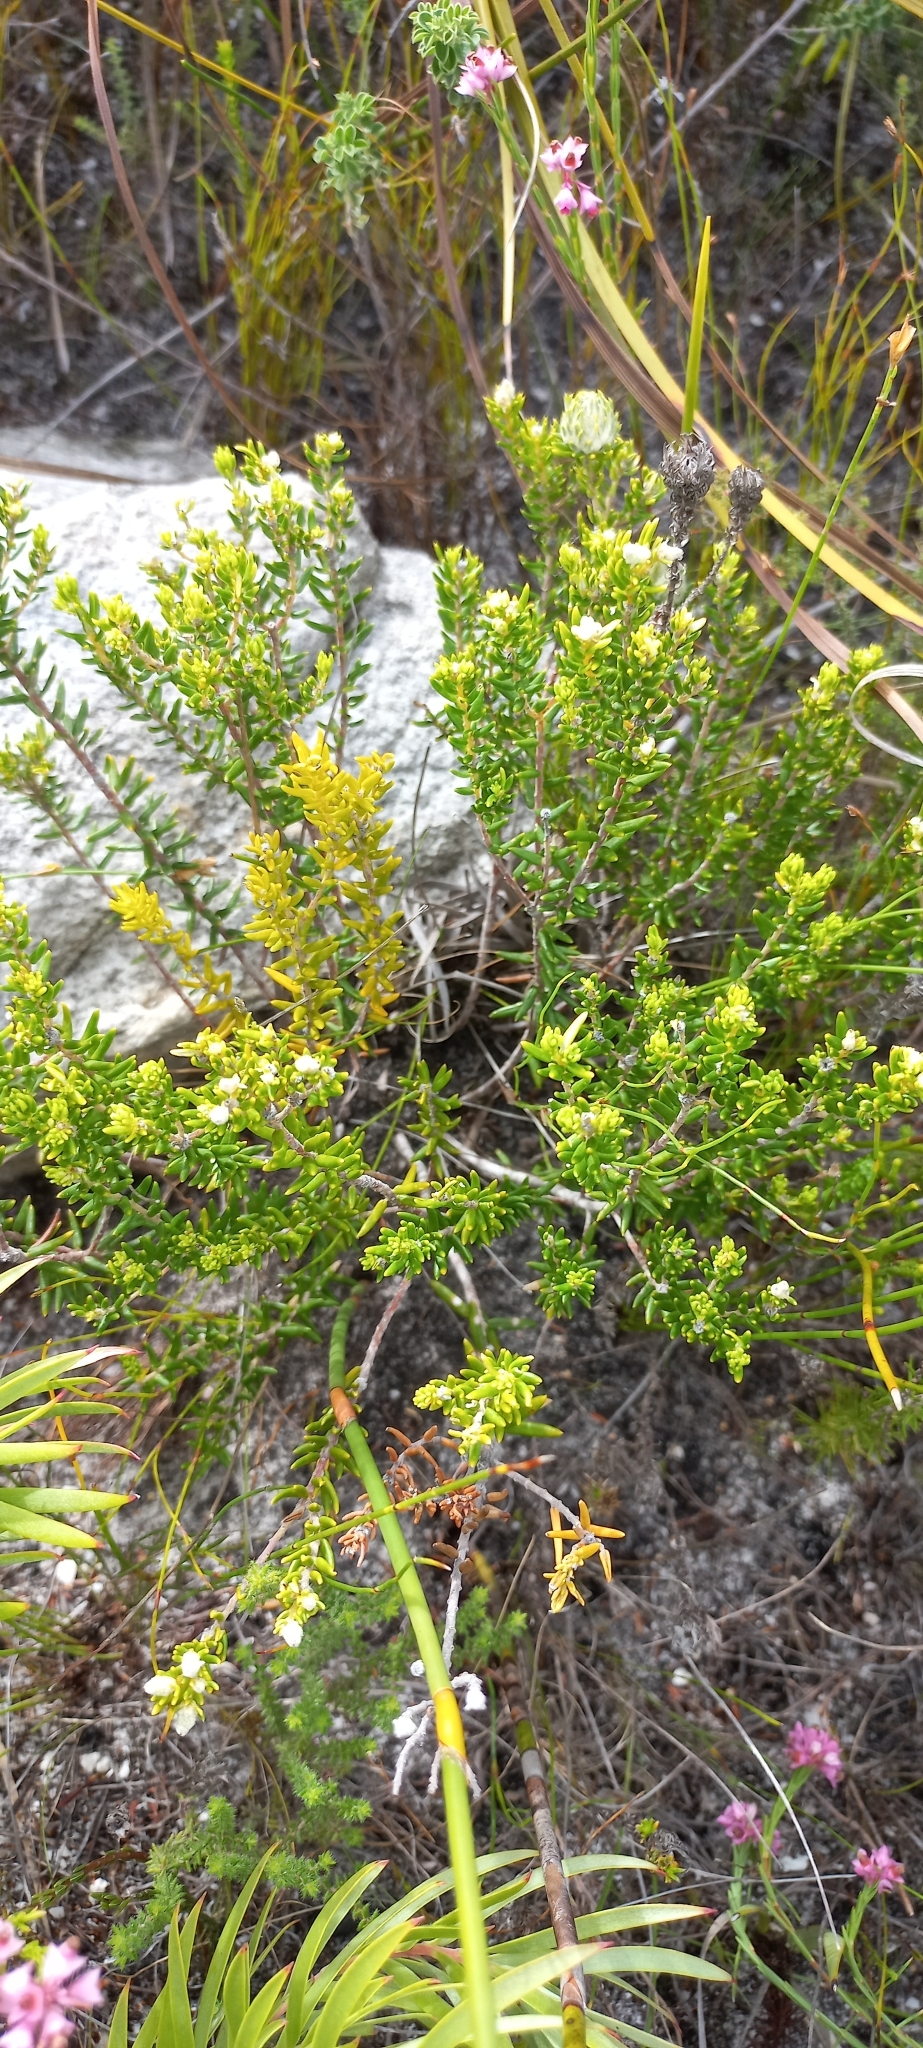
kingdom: Plantae
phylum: Tracheophyta
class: Magnoliopsida
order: Rosales
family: Rhamnaceae
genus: Phylica
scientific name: Phylica lasiocarpa
